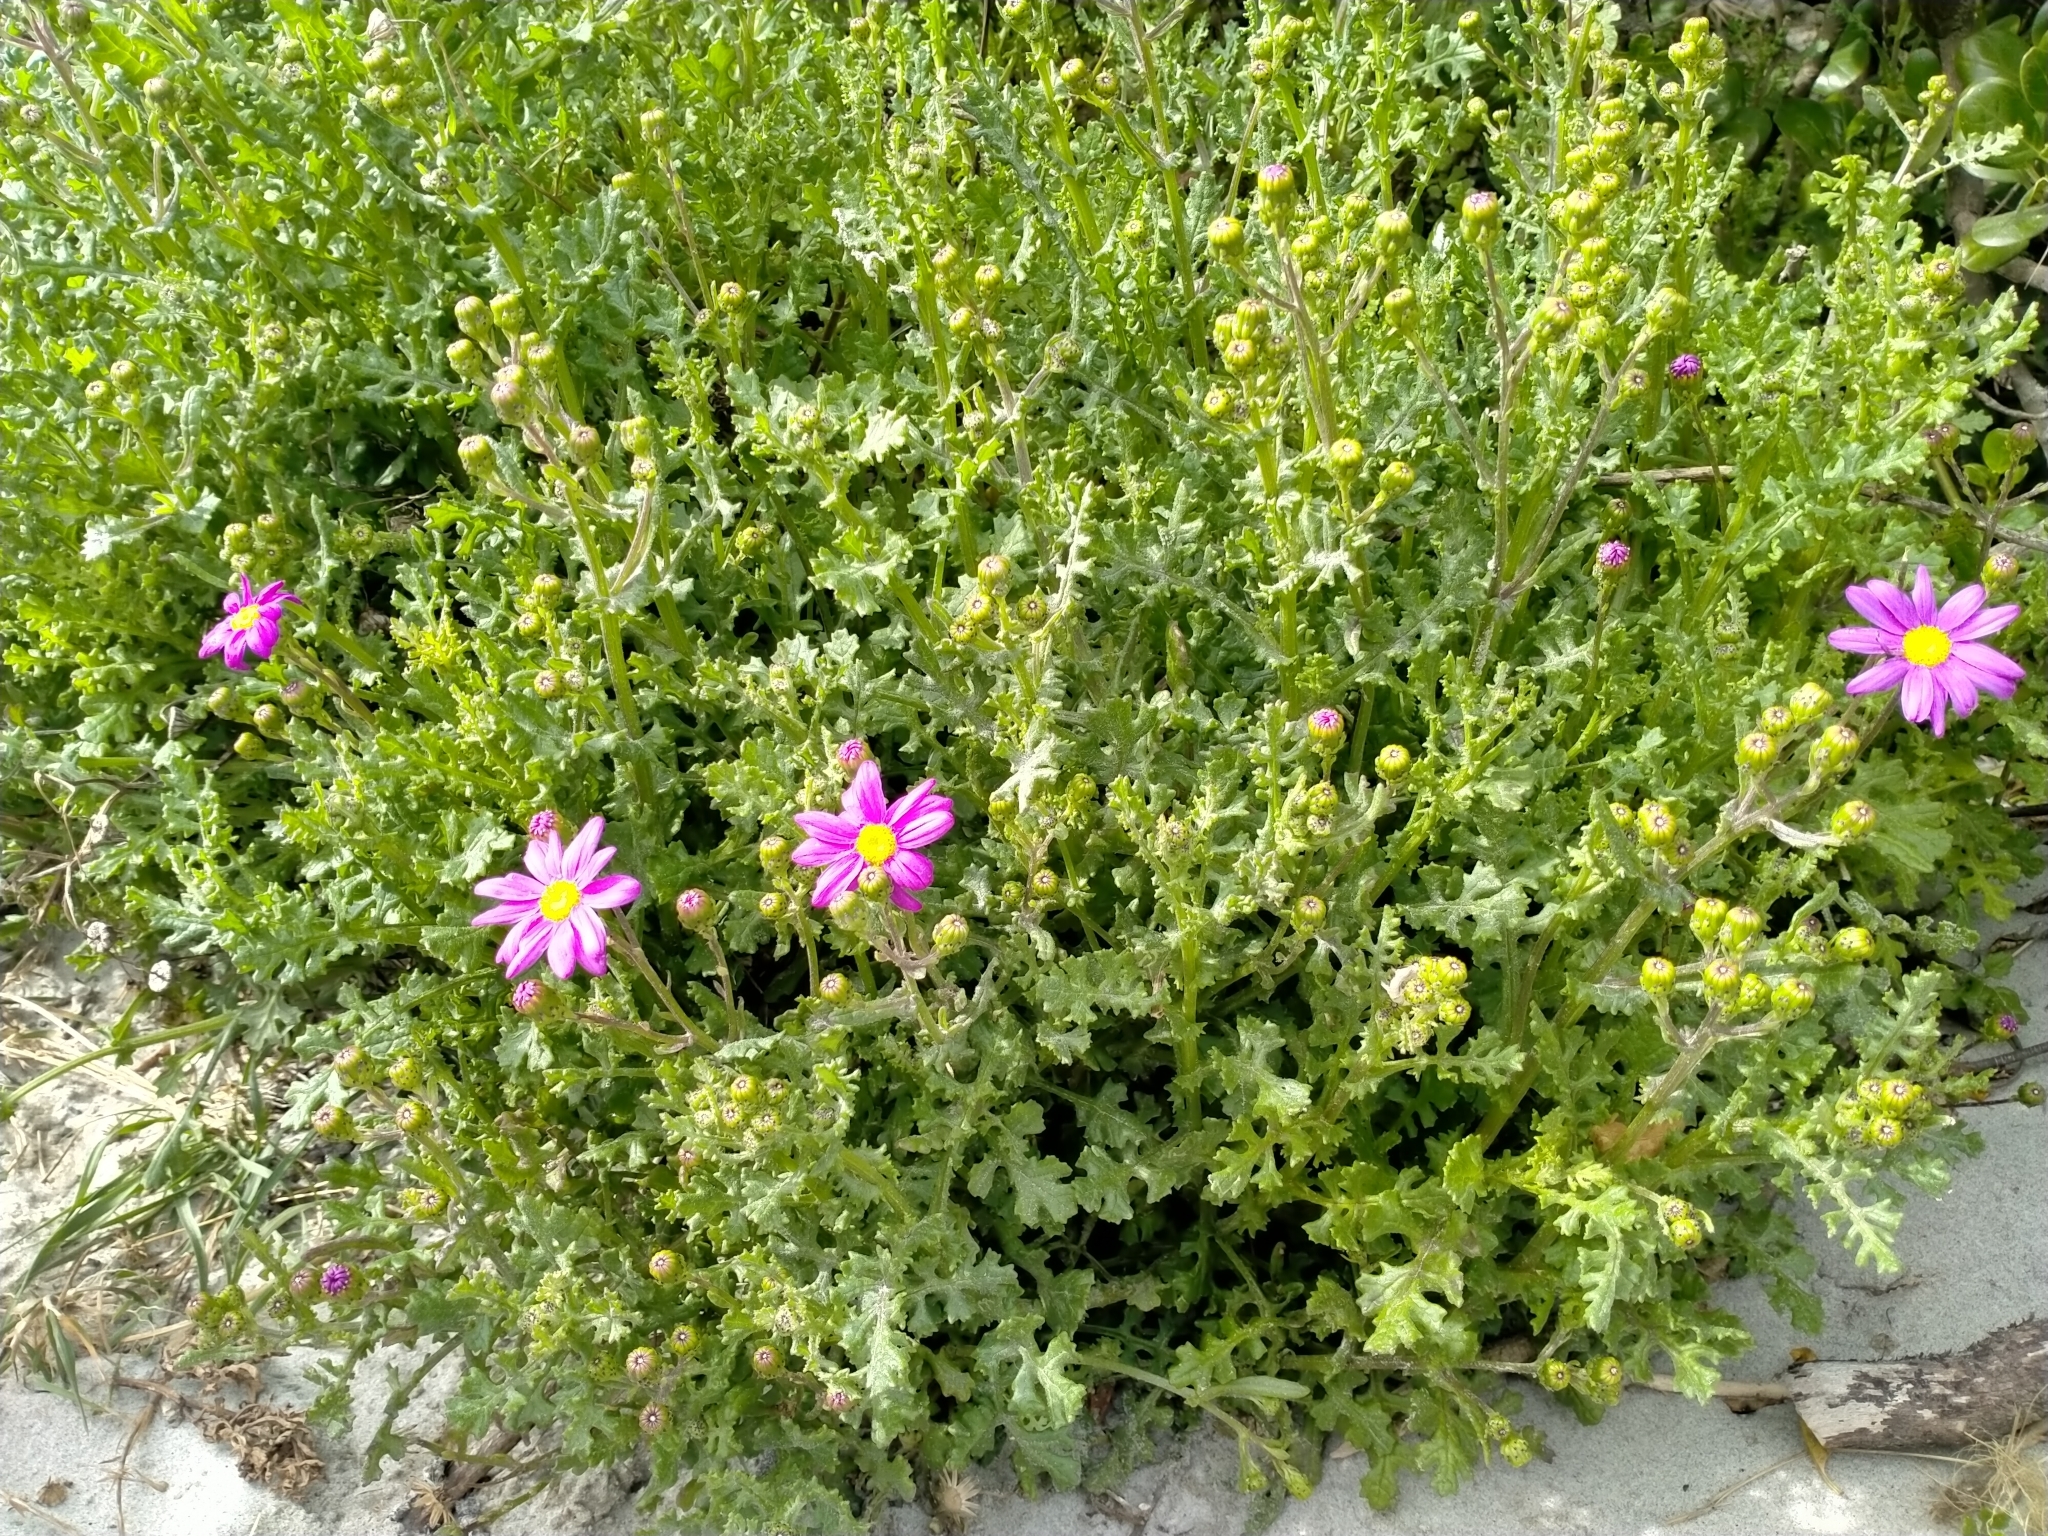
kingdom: Plantae
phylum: Tracheophyta
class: Magnoliopsida
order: Asterales
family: Asteraceae
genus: Senecio
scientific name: Senecio elegans
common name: Purple groundsel
